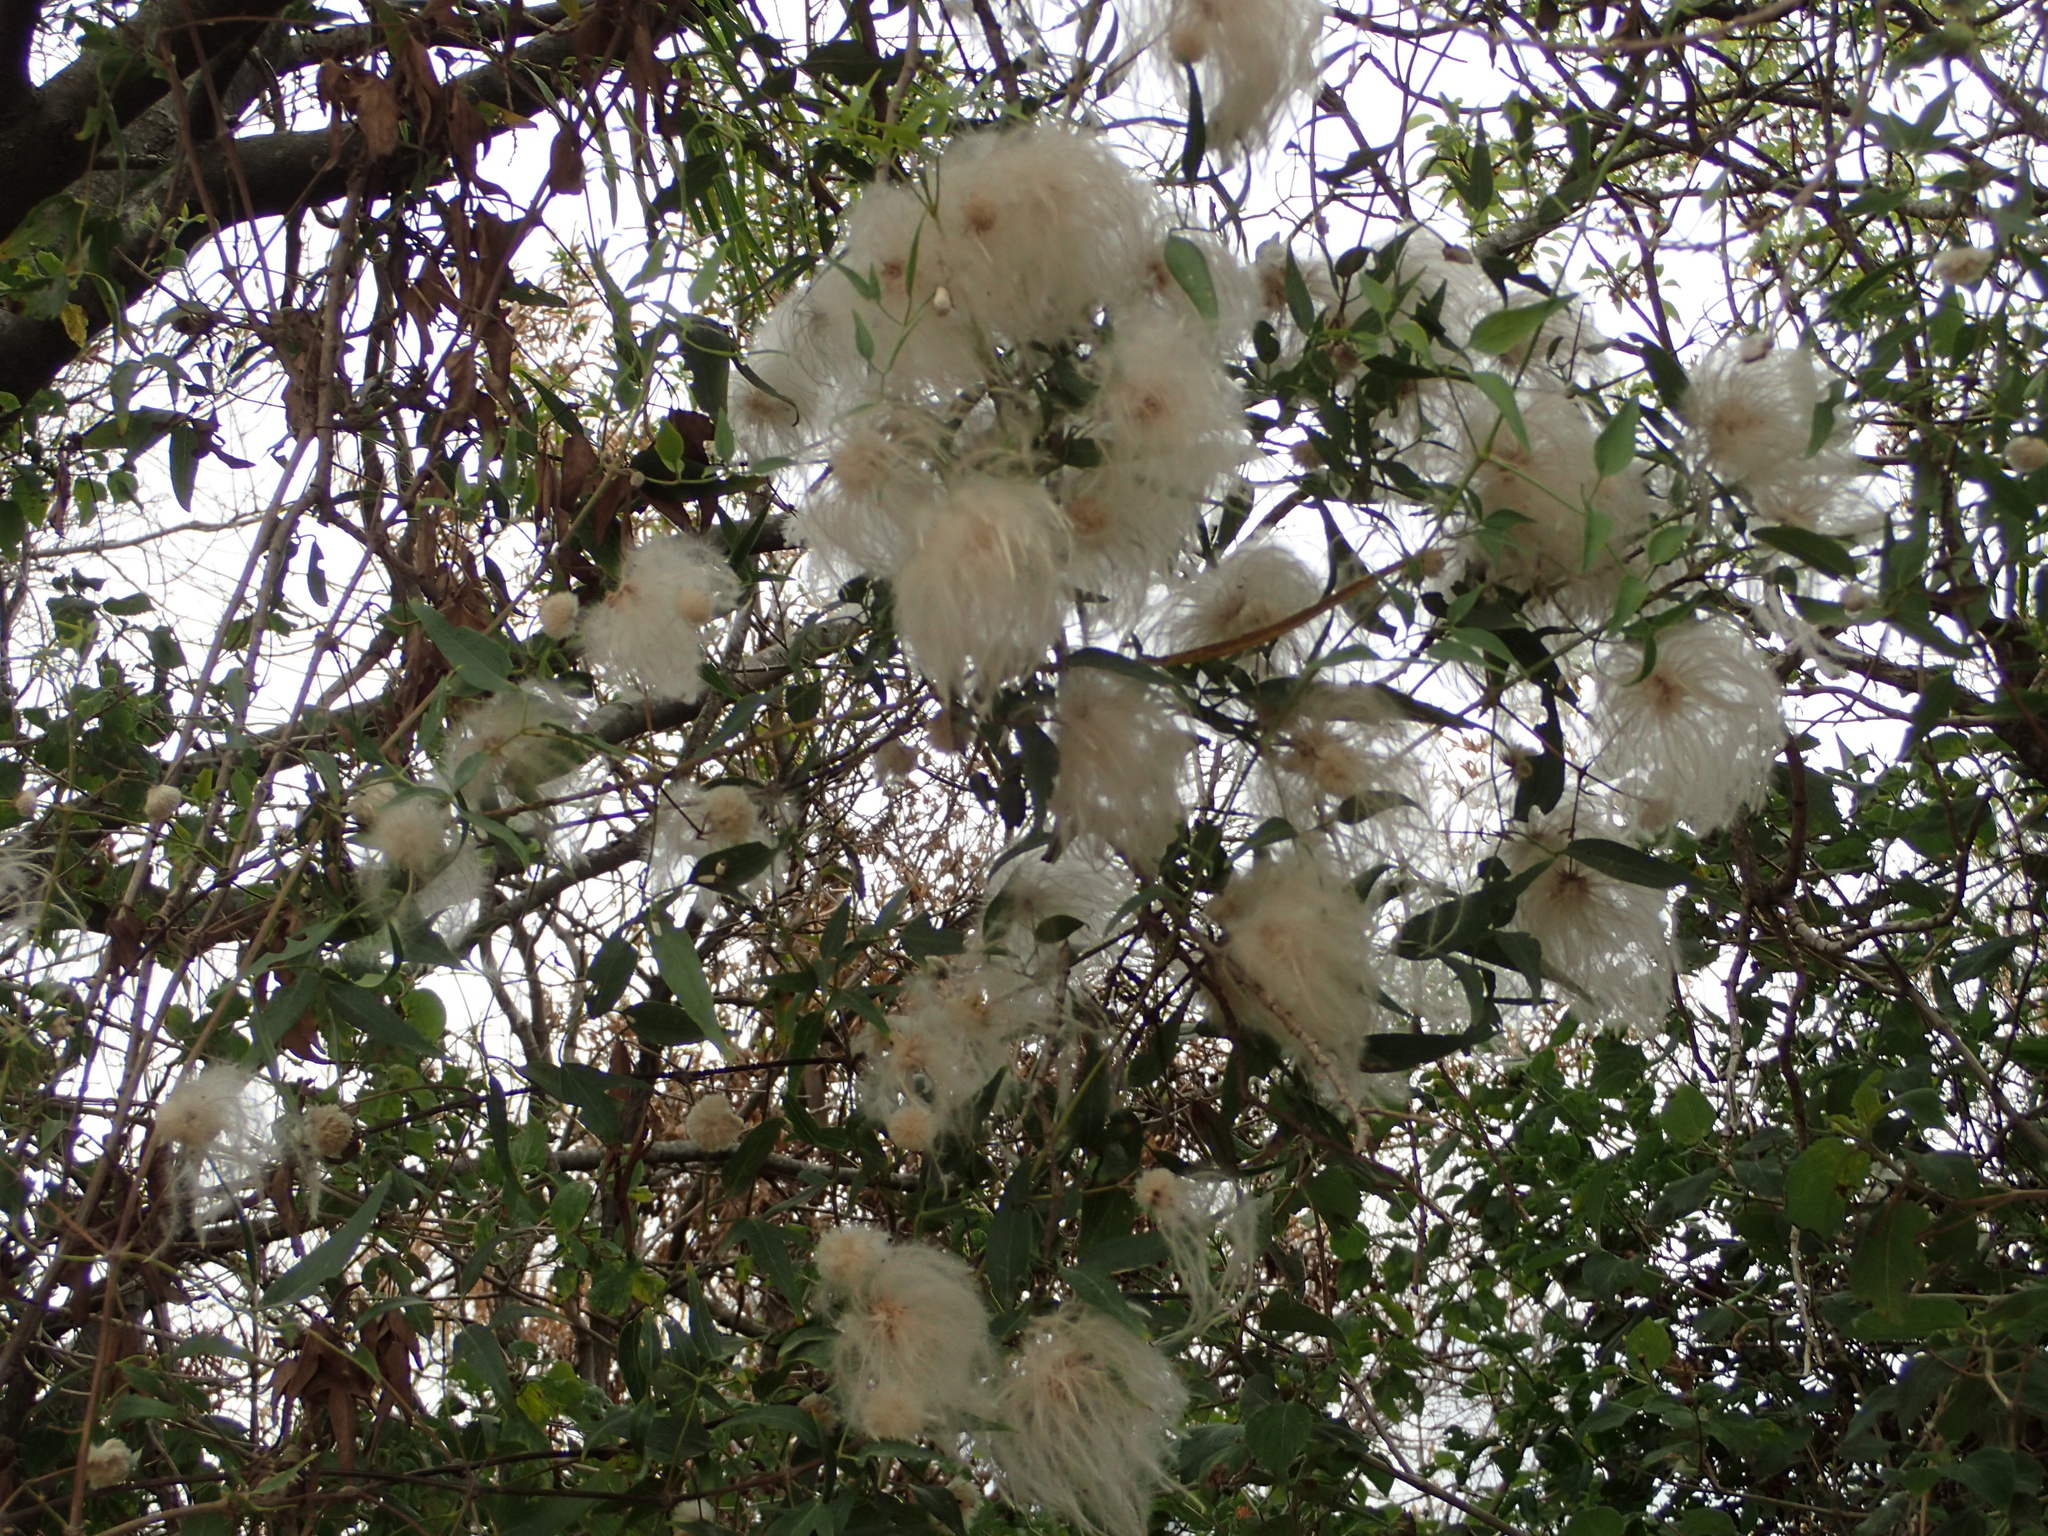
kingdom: Plantae
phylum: Tracheophyta
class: Magnoliopsida
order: Ranunculales
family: Ranunculaceae
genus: Clematis
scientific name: Clematis montevidensis
